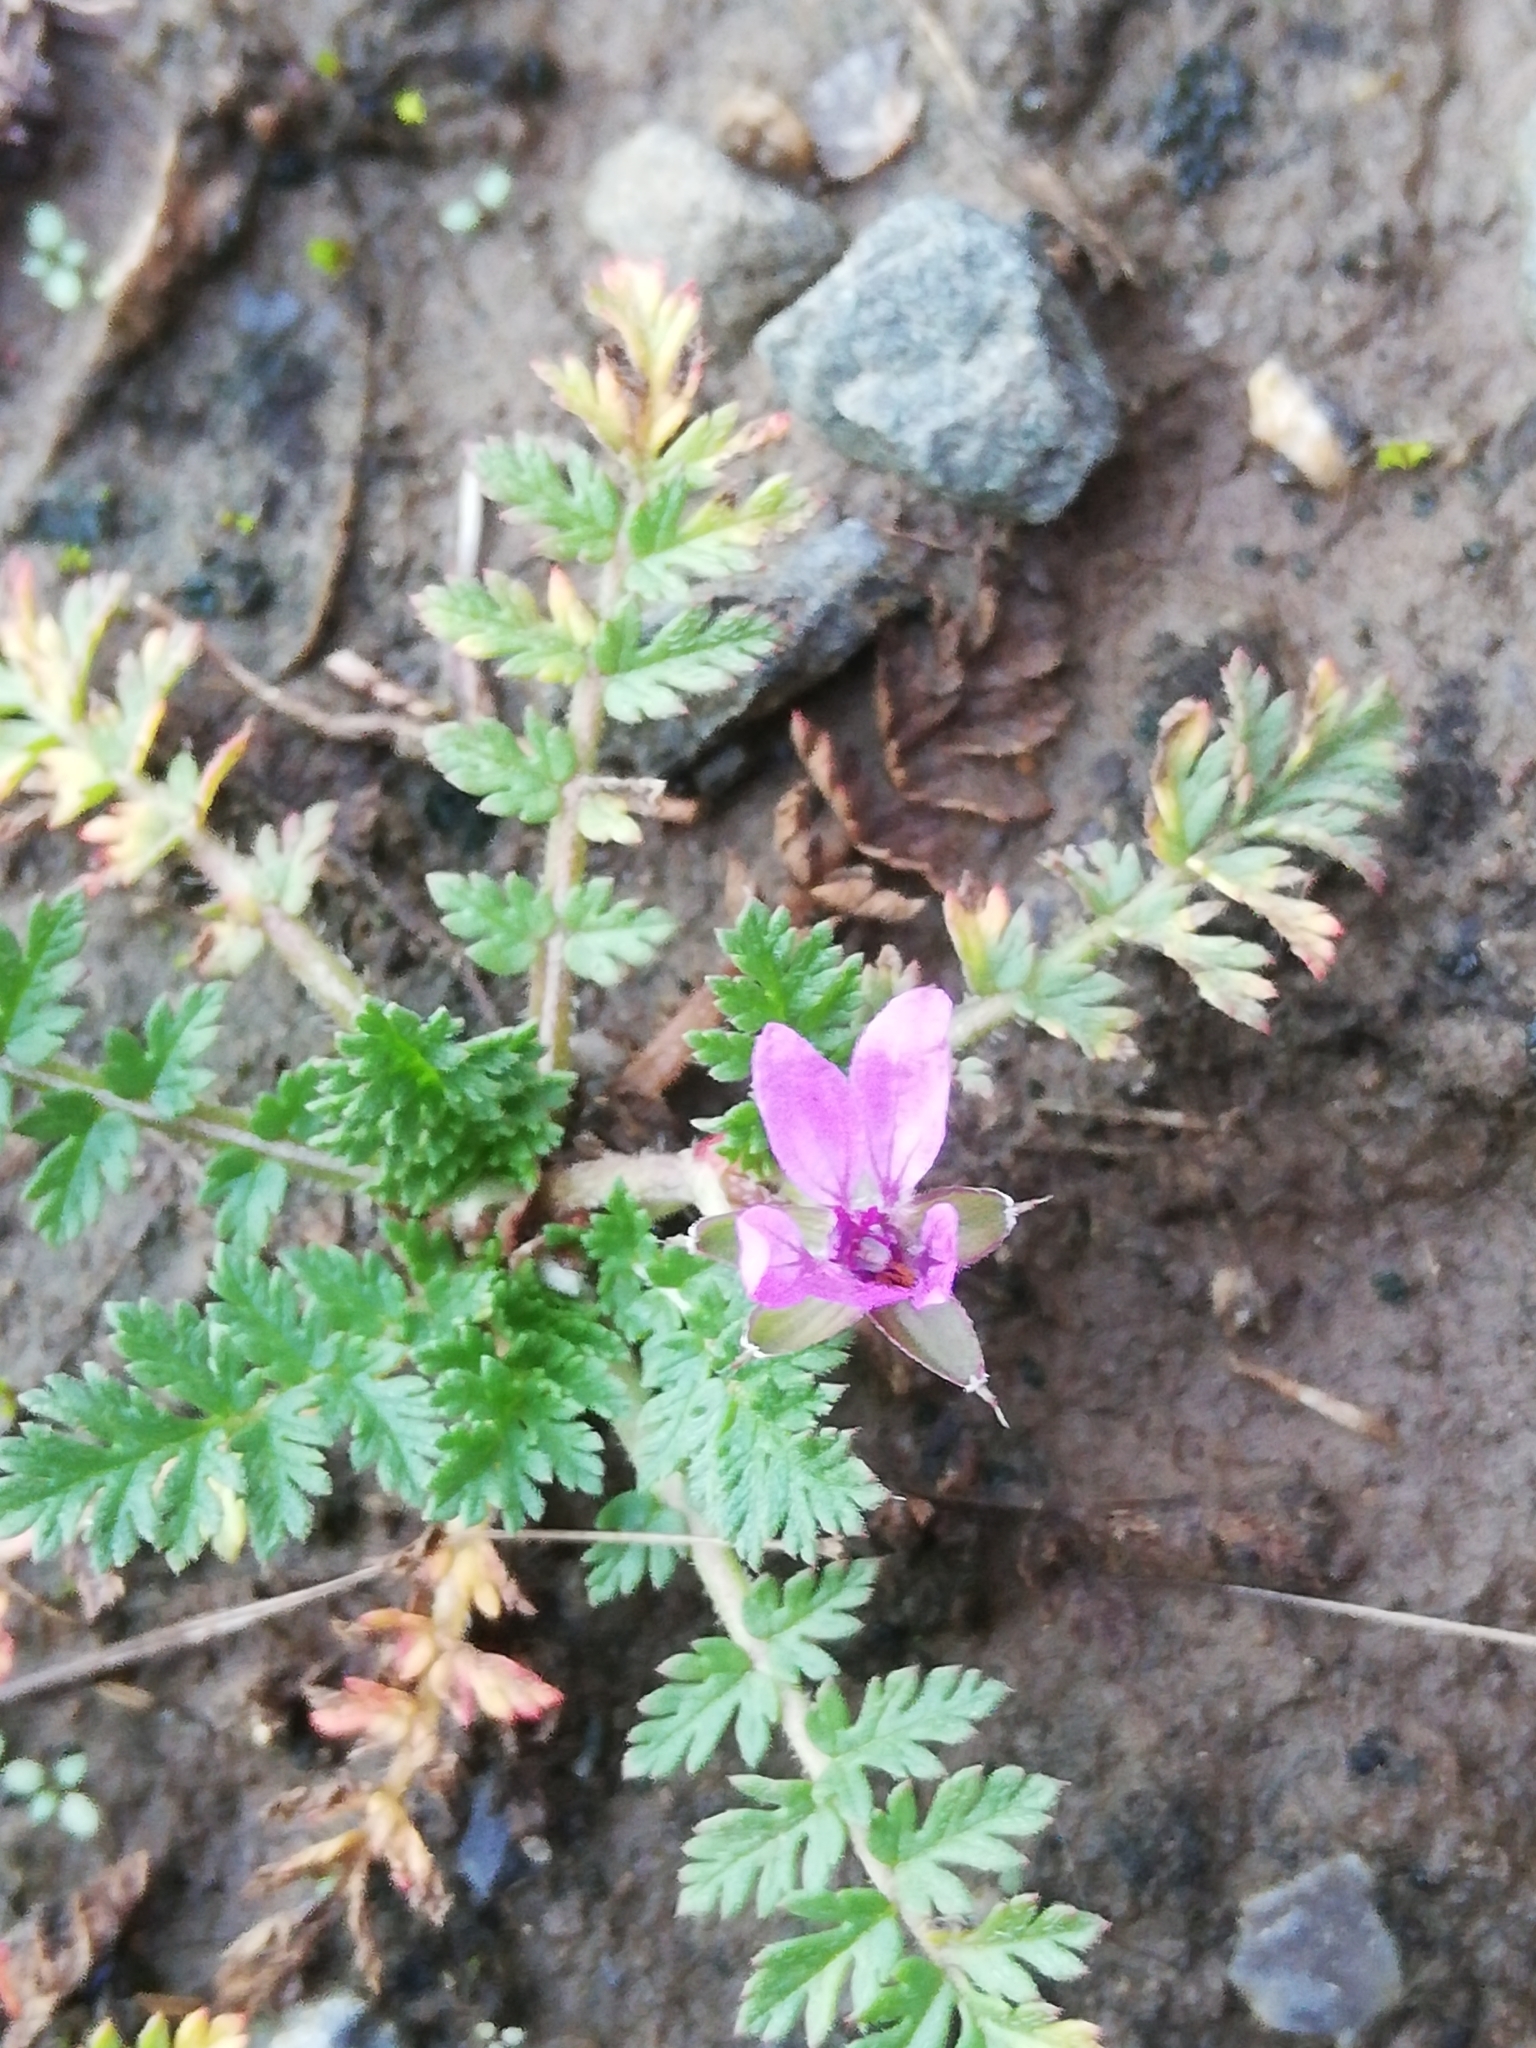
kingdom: Plantae
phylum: Tracheophyta
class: Magnoliopsida
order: Geraniales
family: Geraniaceae
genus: Erodium
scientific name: Erodium cicutarium
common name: Common stork's-bill
